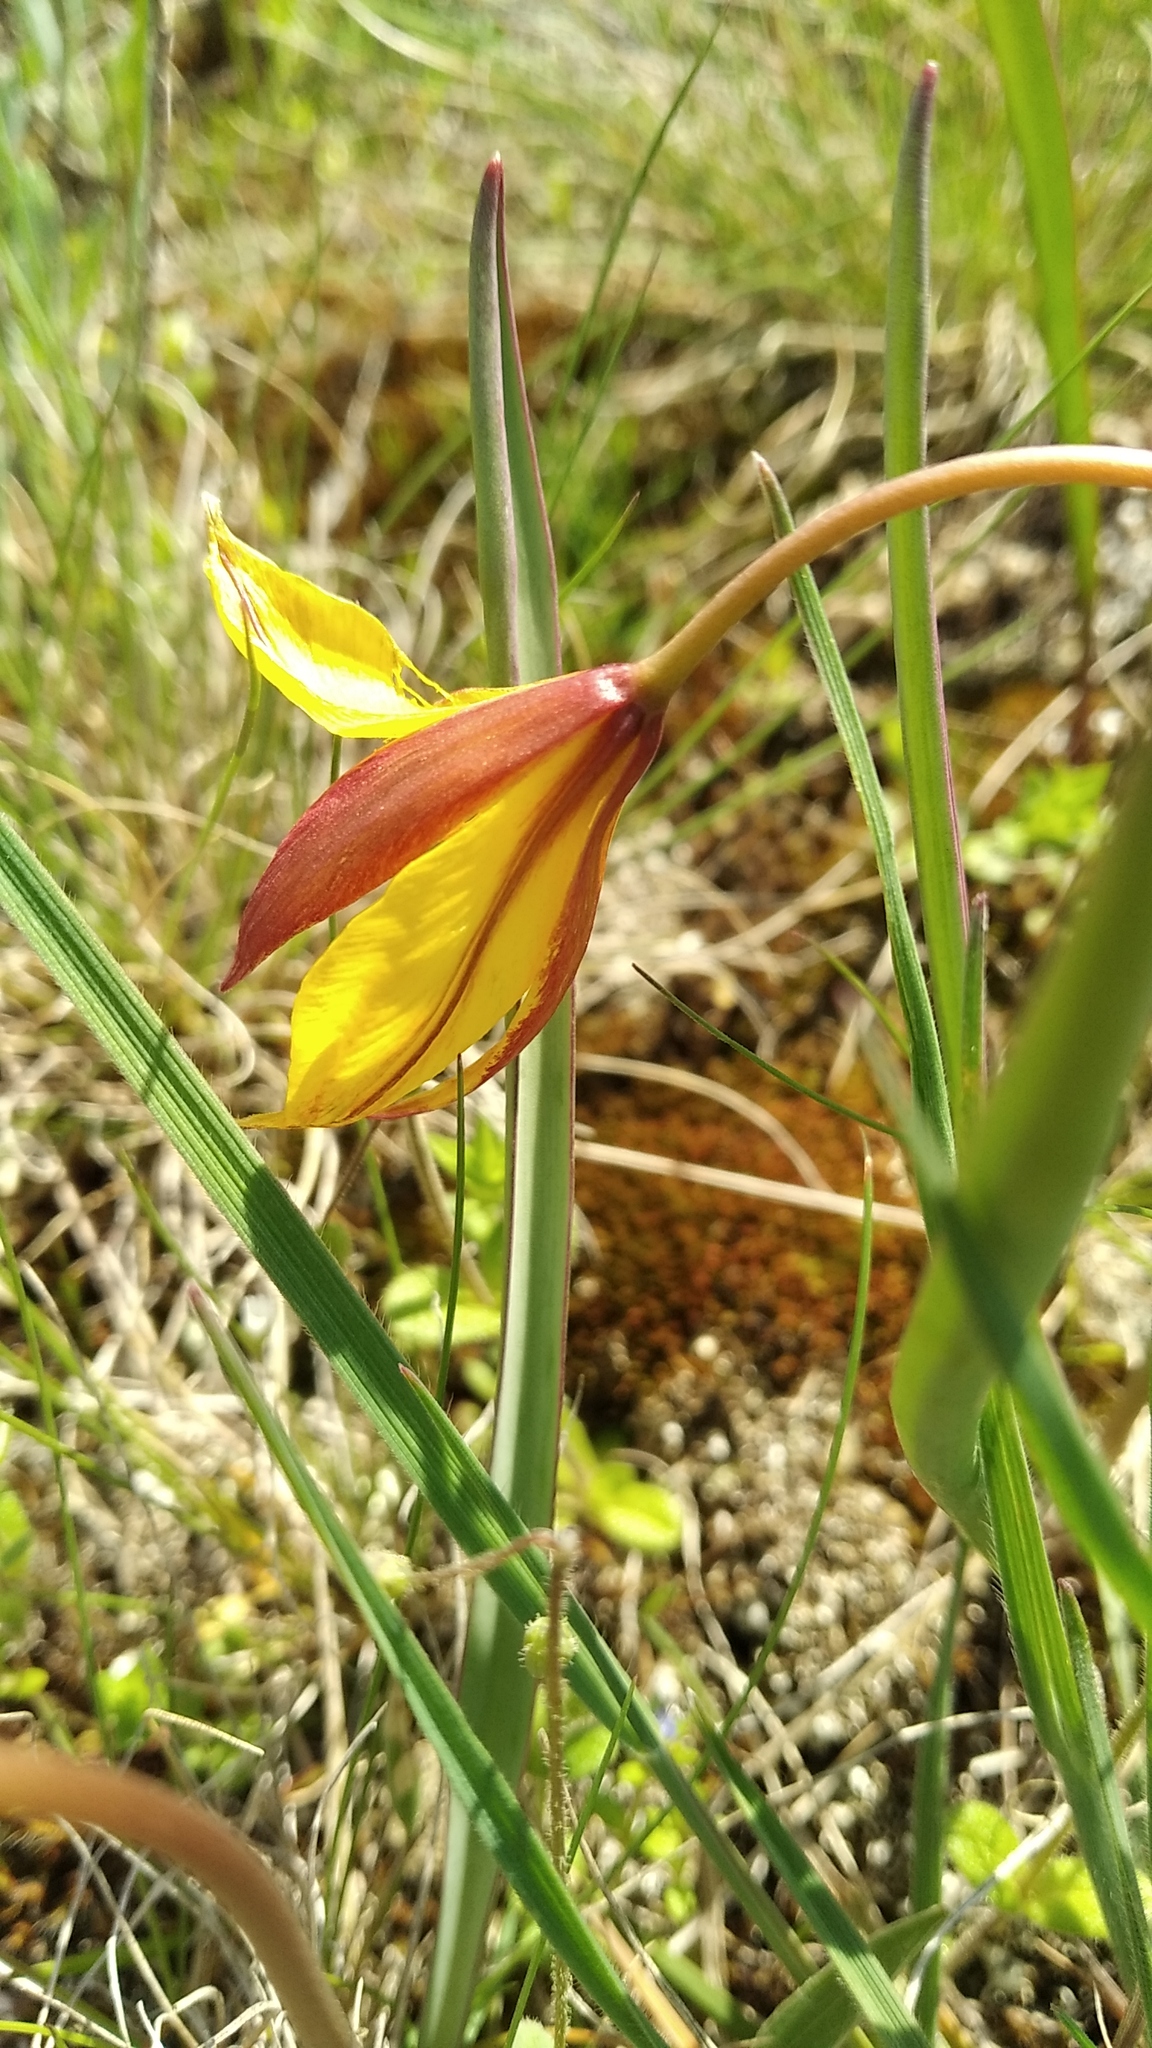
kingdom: Plantae
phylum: Tracheophyta
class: Liliopsida
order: Liliales
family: Liliaceae
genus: Tulipa
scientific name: Tulipa sylvestris
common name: Wild tulip
